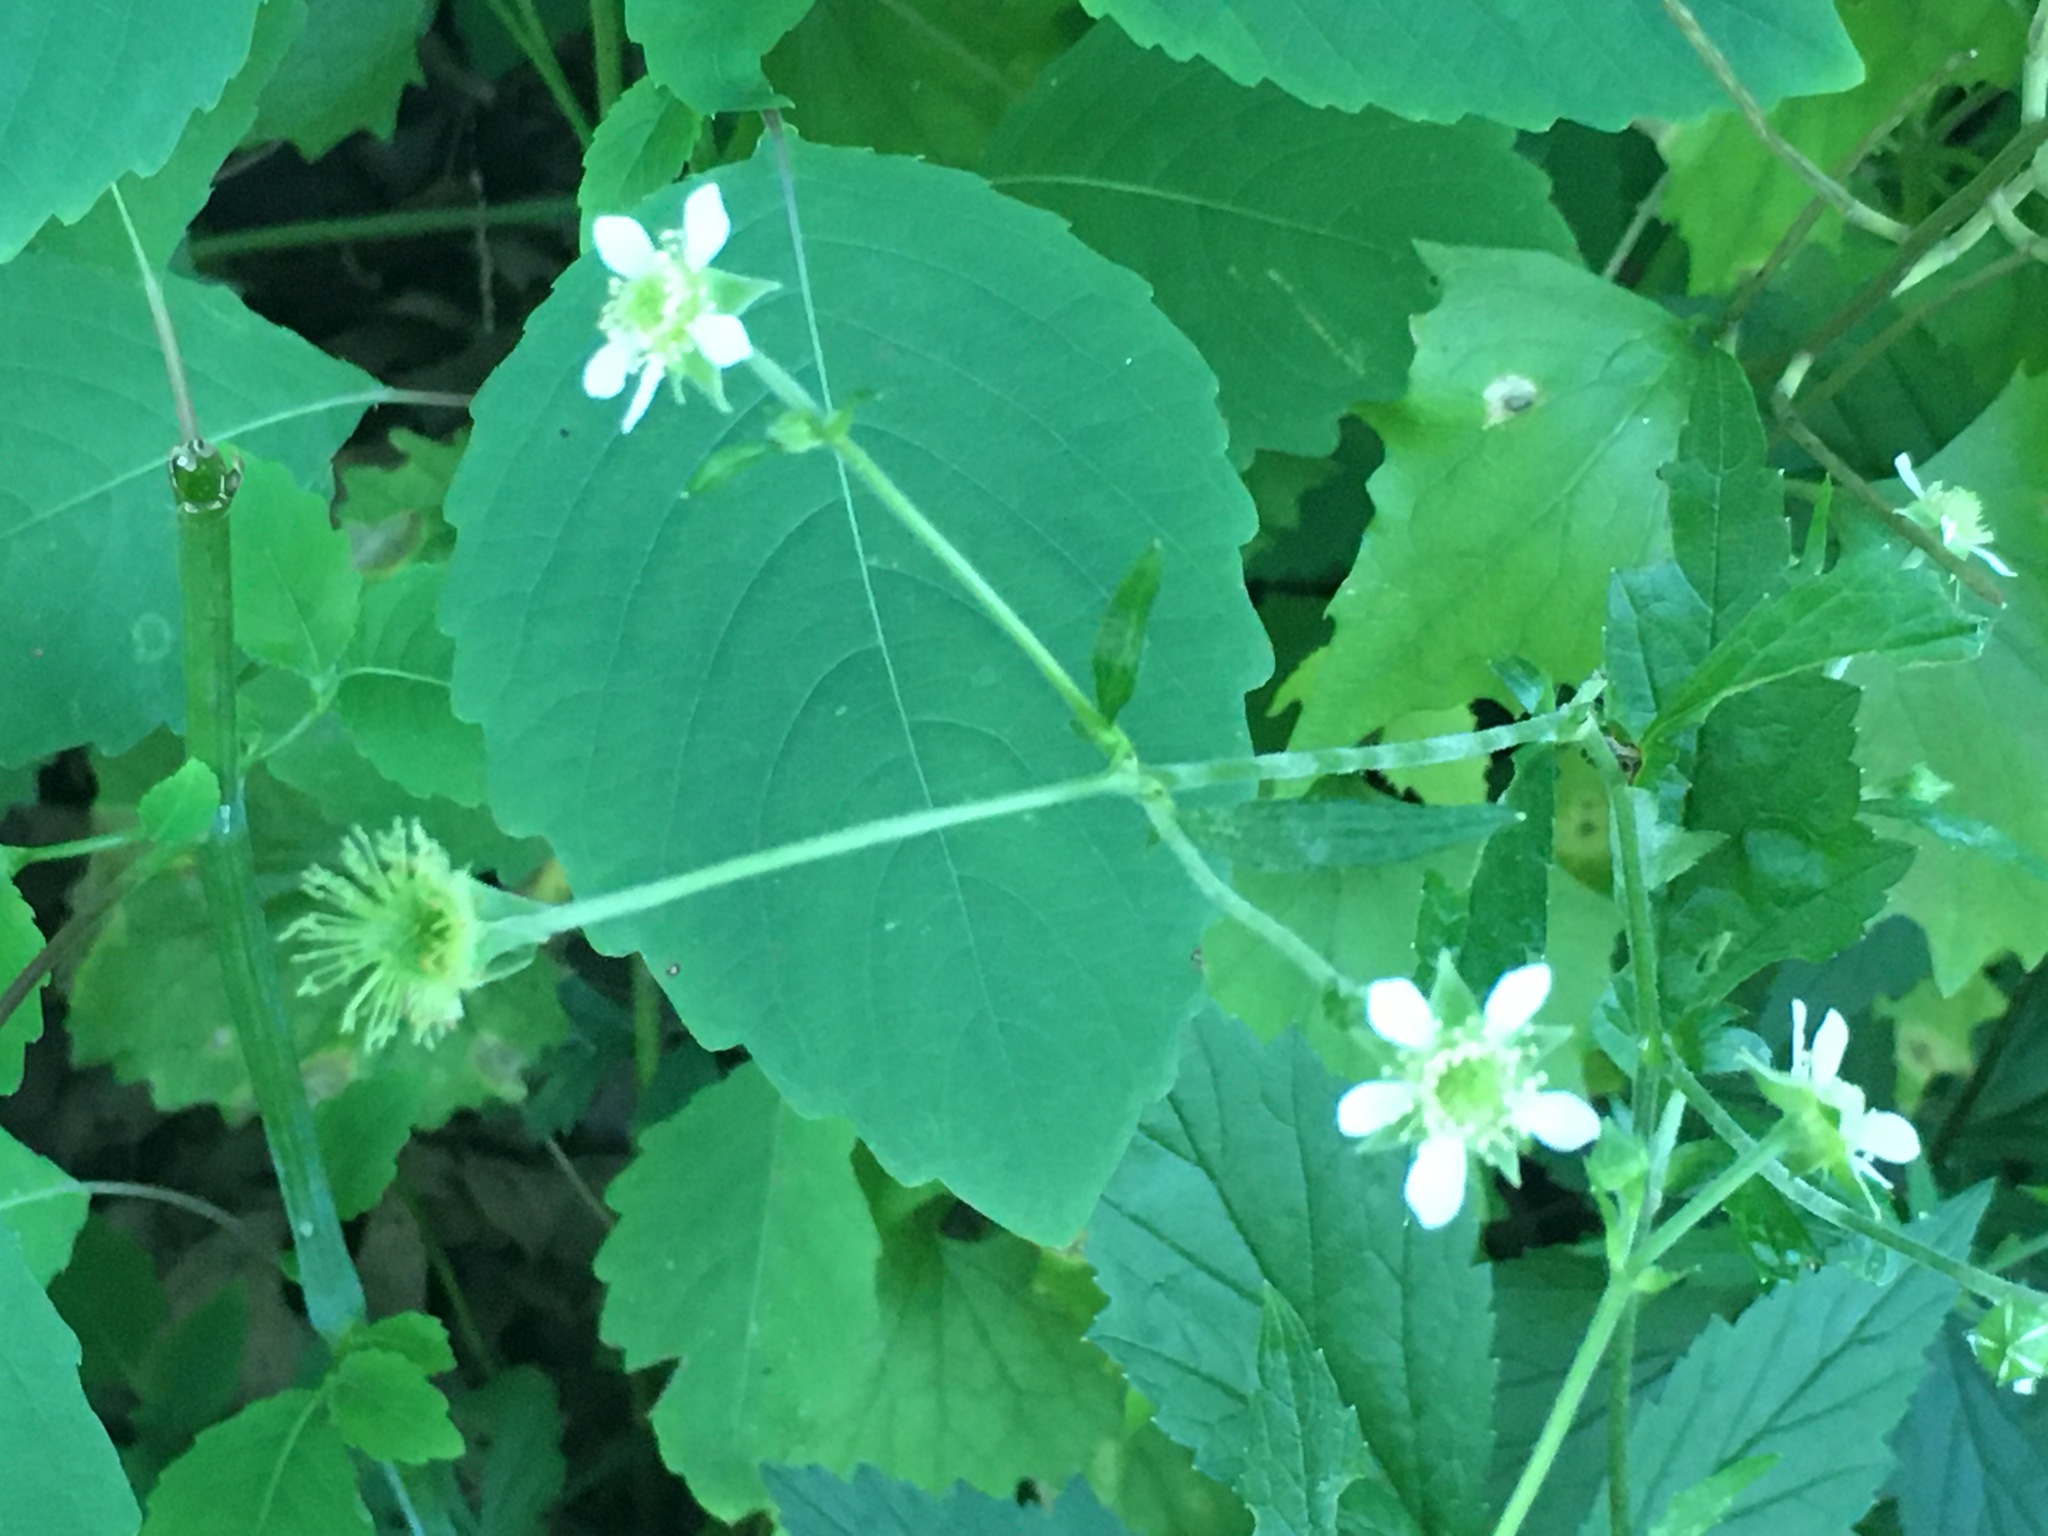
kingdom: Plantae
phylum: Tracheophyta
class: Magnoliopsida
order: Rosales
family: Rosaceae
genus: Geum
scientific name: Geum canadense
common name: White avens
